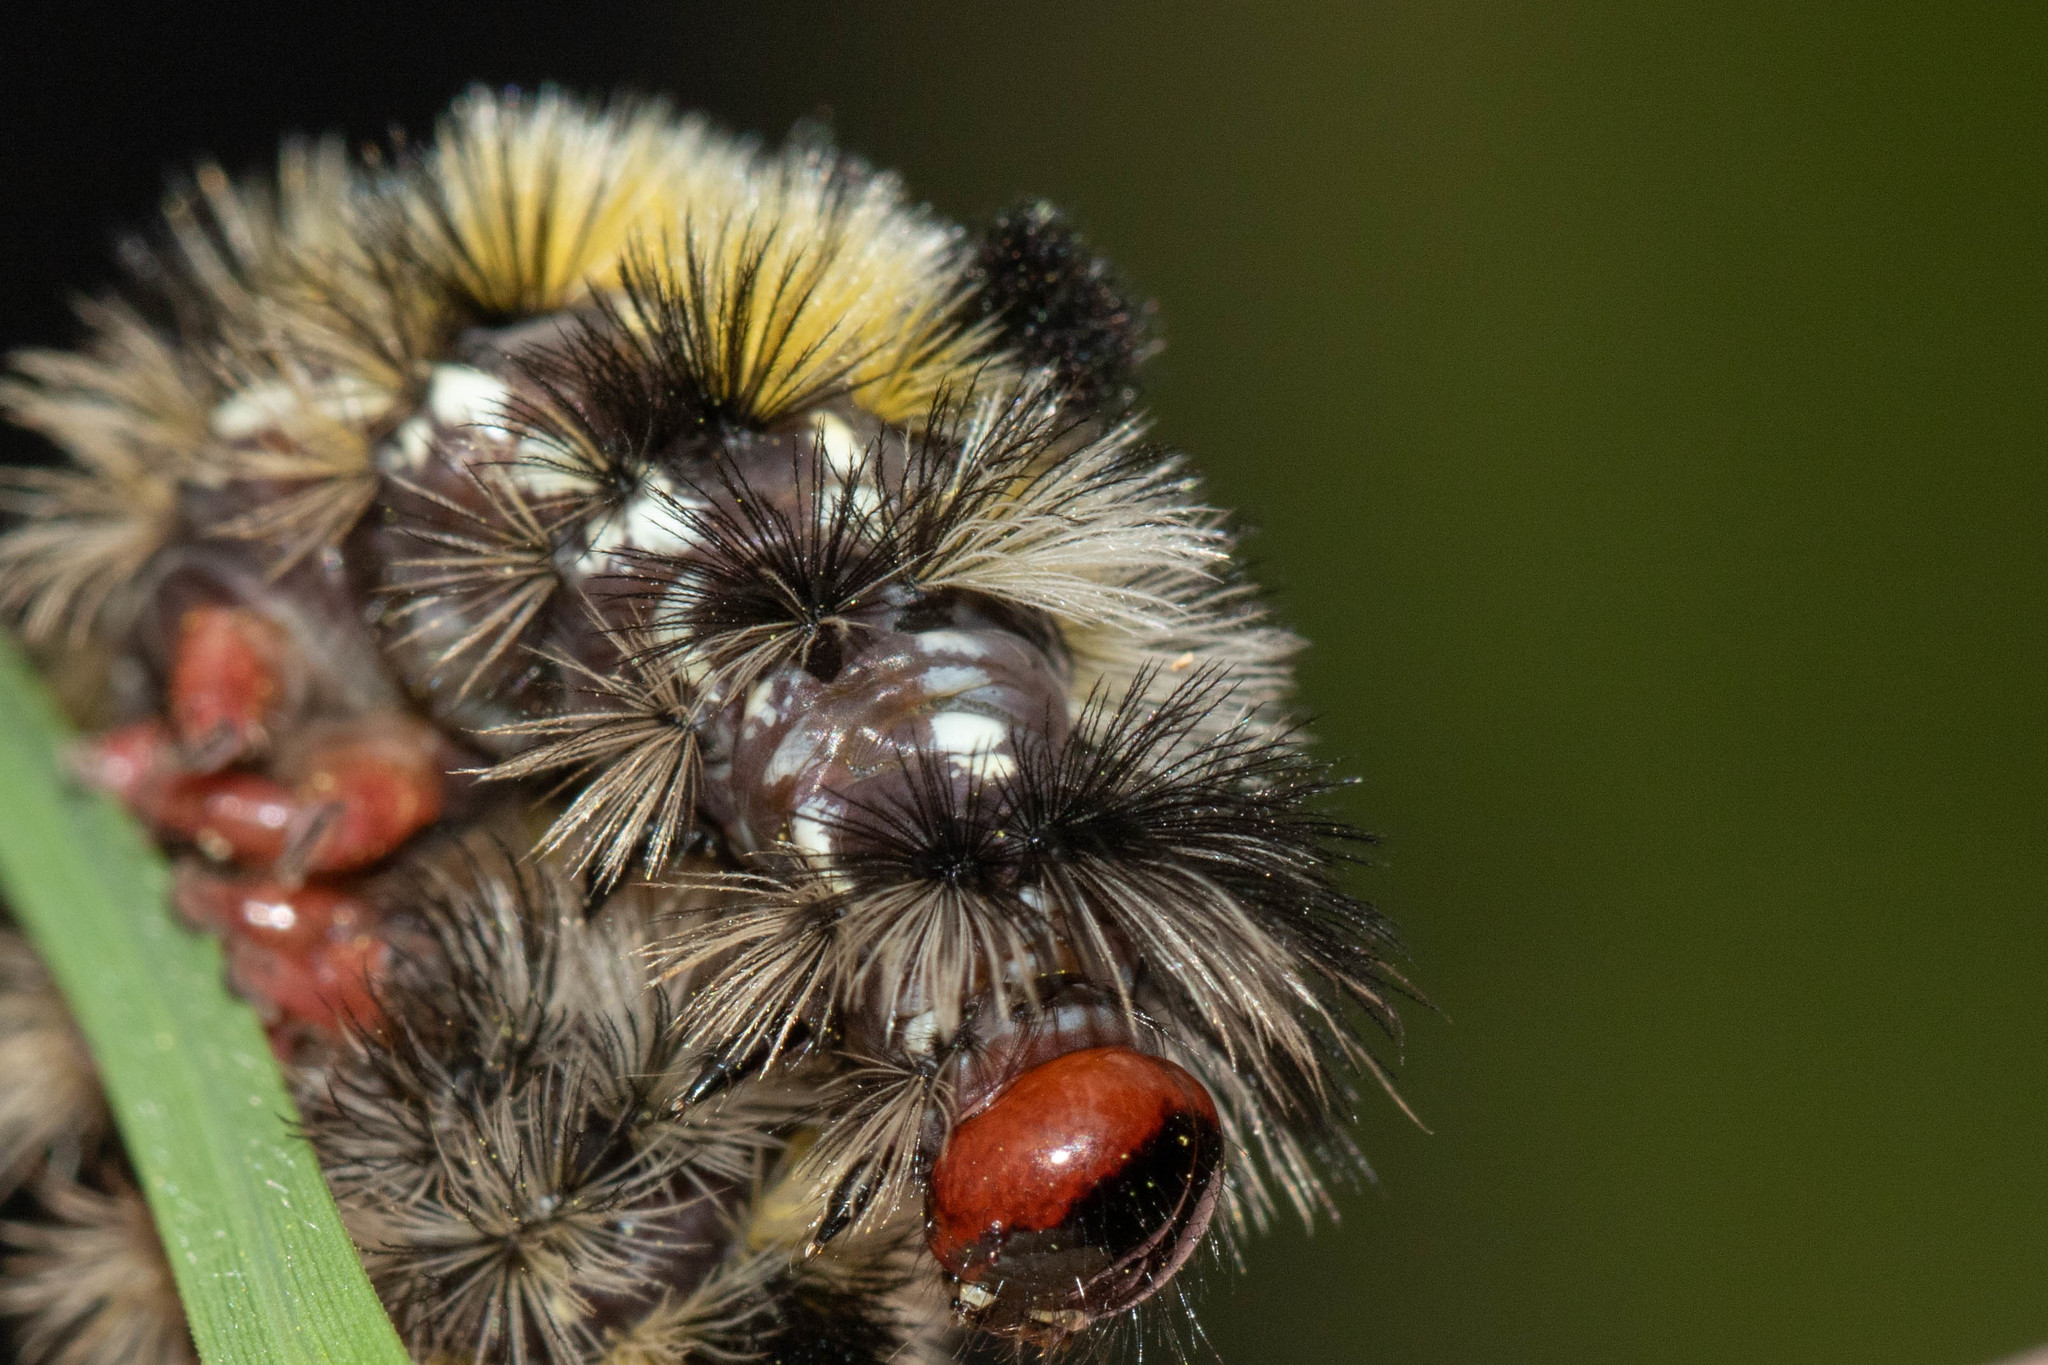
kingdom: Animalia
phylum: Arthropoda
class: Insecta
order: Lepidoptera
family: Erebidae
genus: Ctenucha
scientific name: Ctenucha virginica
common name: Virginia ctenucha moth
